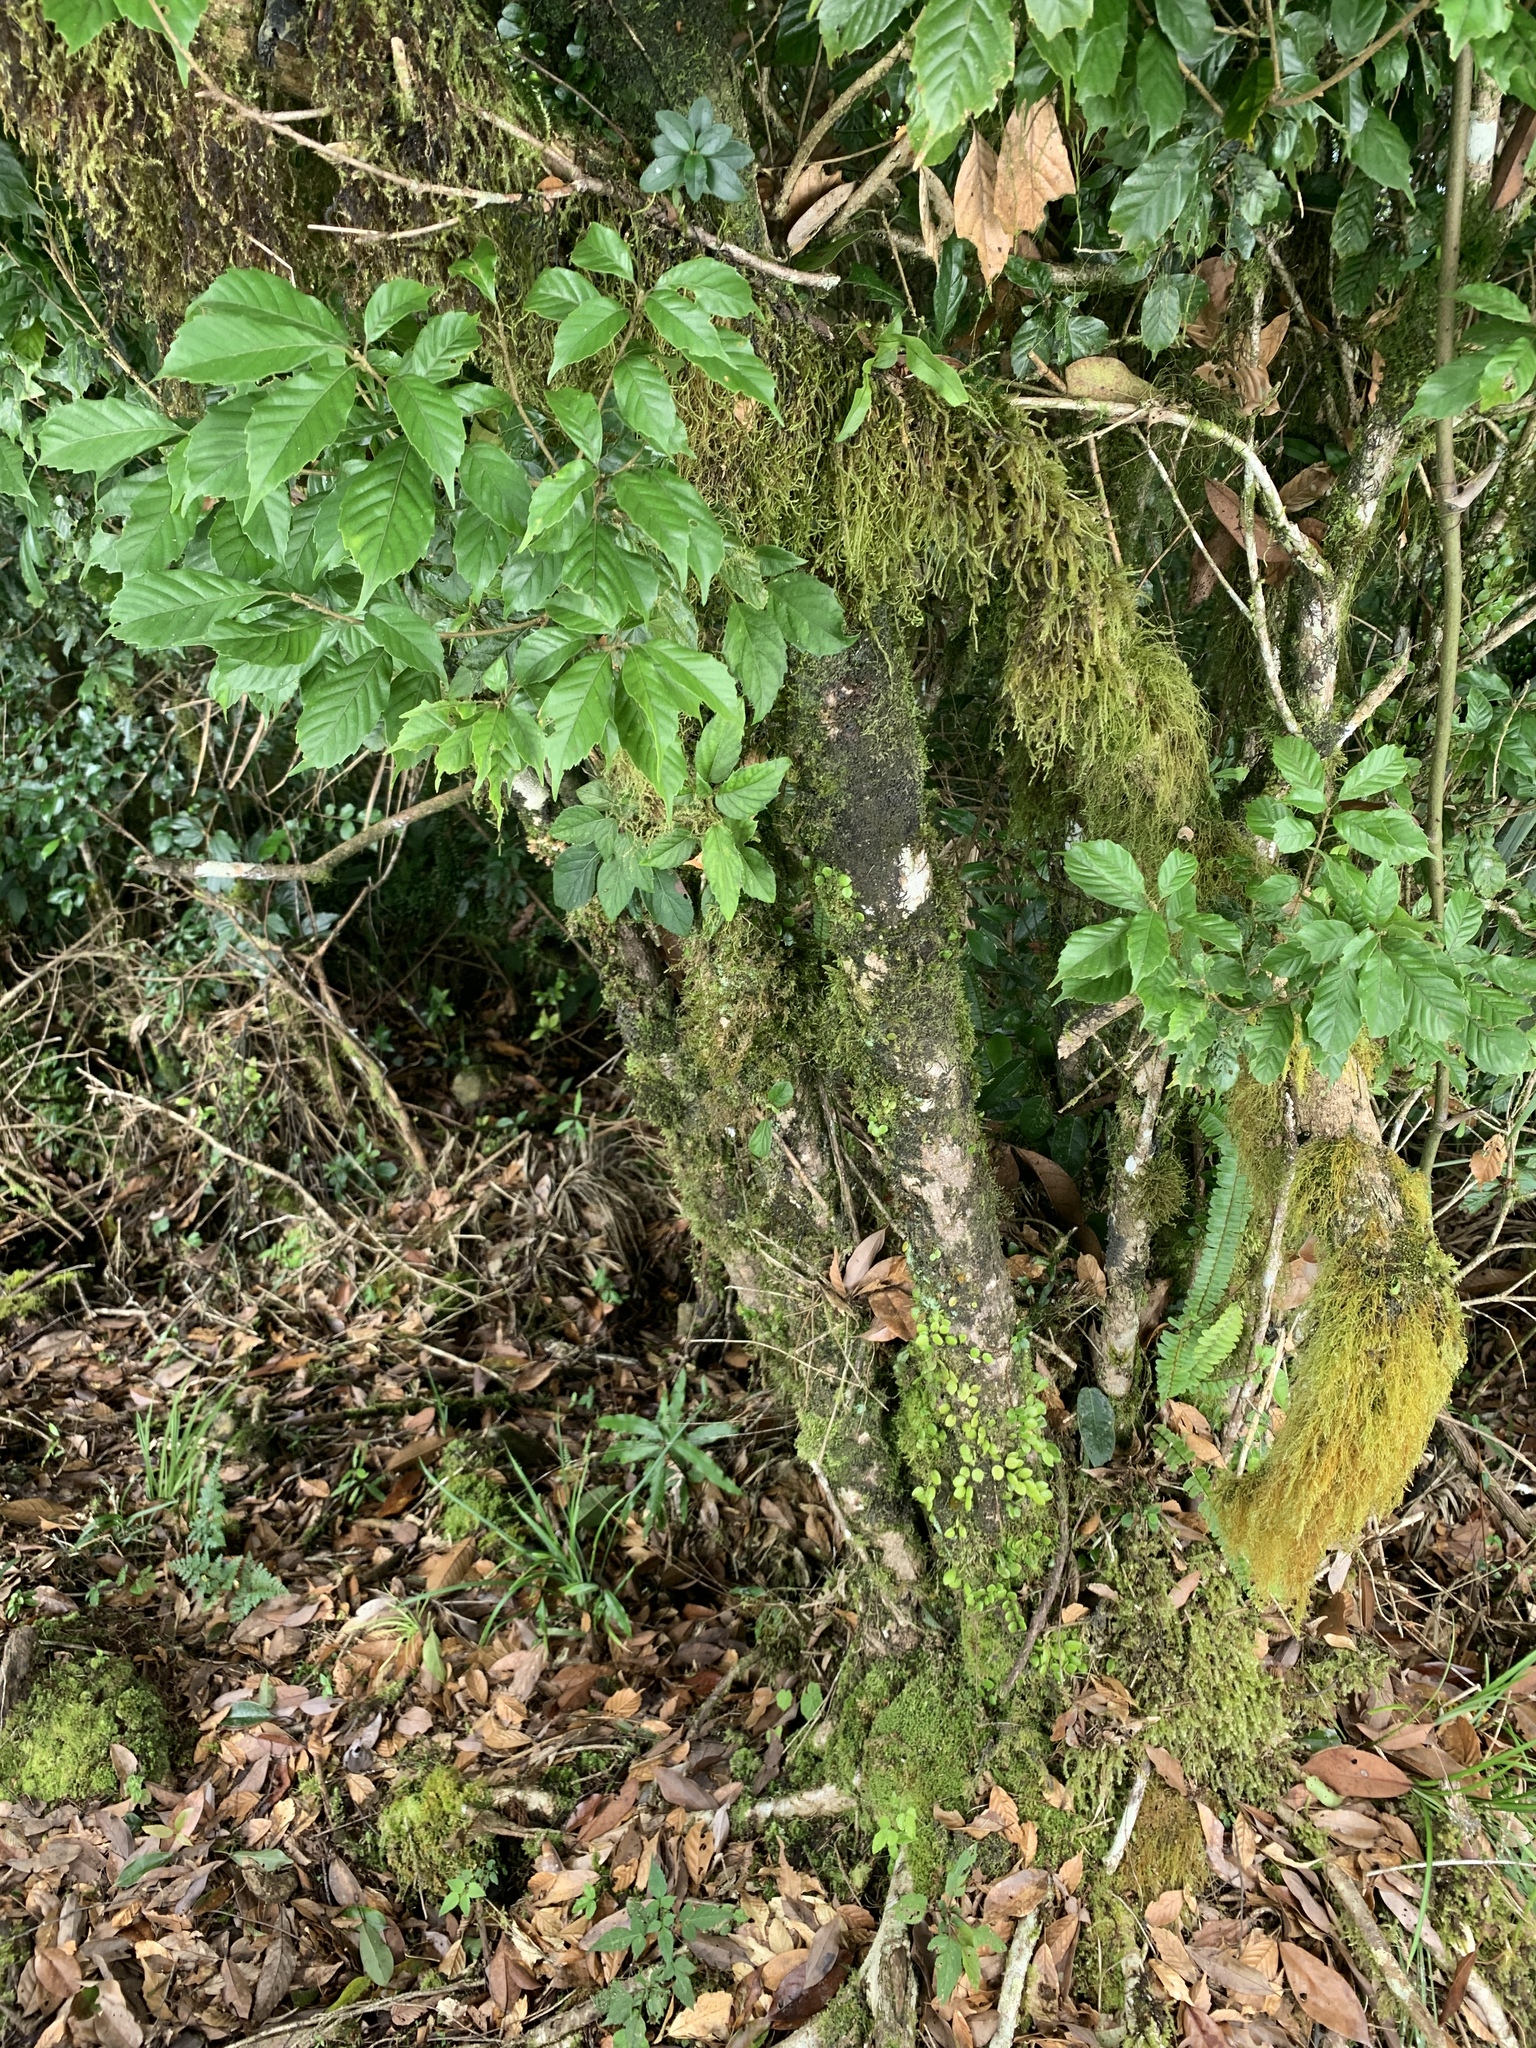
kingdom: Plantae
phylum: Tracheophyta
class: Magnoliopsida
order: Fagales
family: Fagaceae
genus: Lithocarpus
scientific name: Lithocarpus corneus
